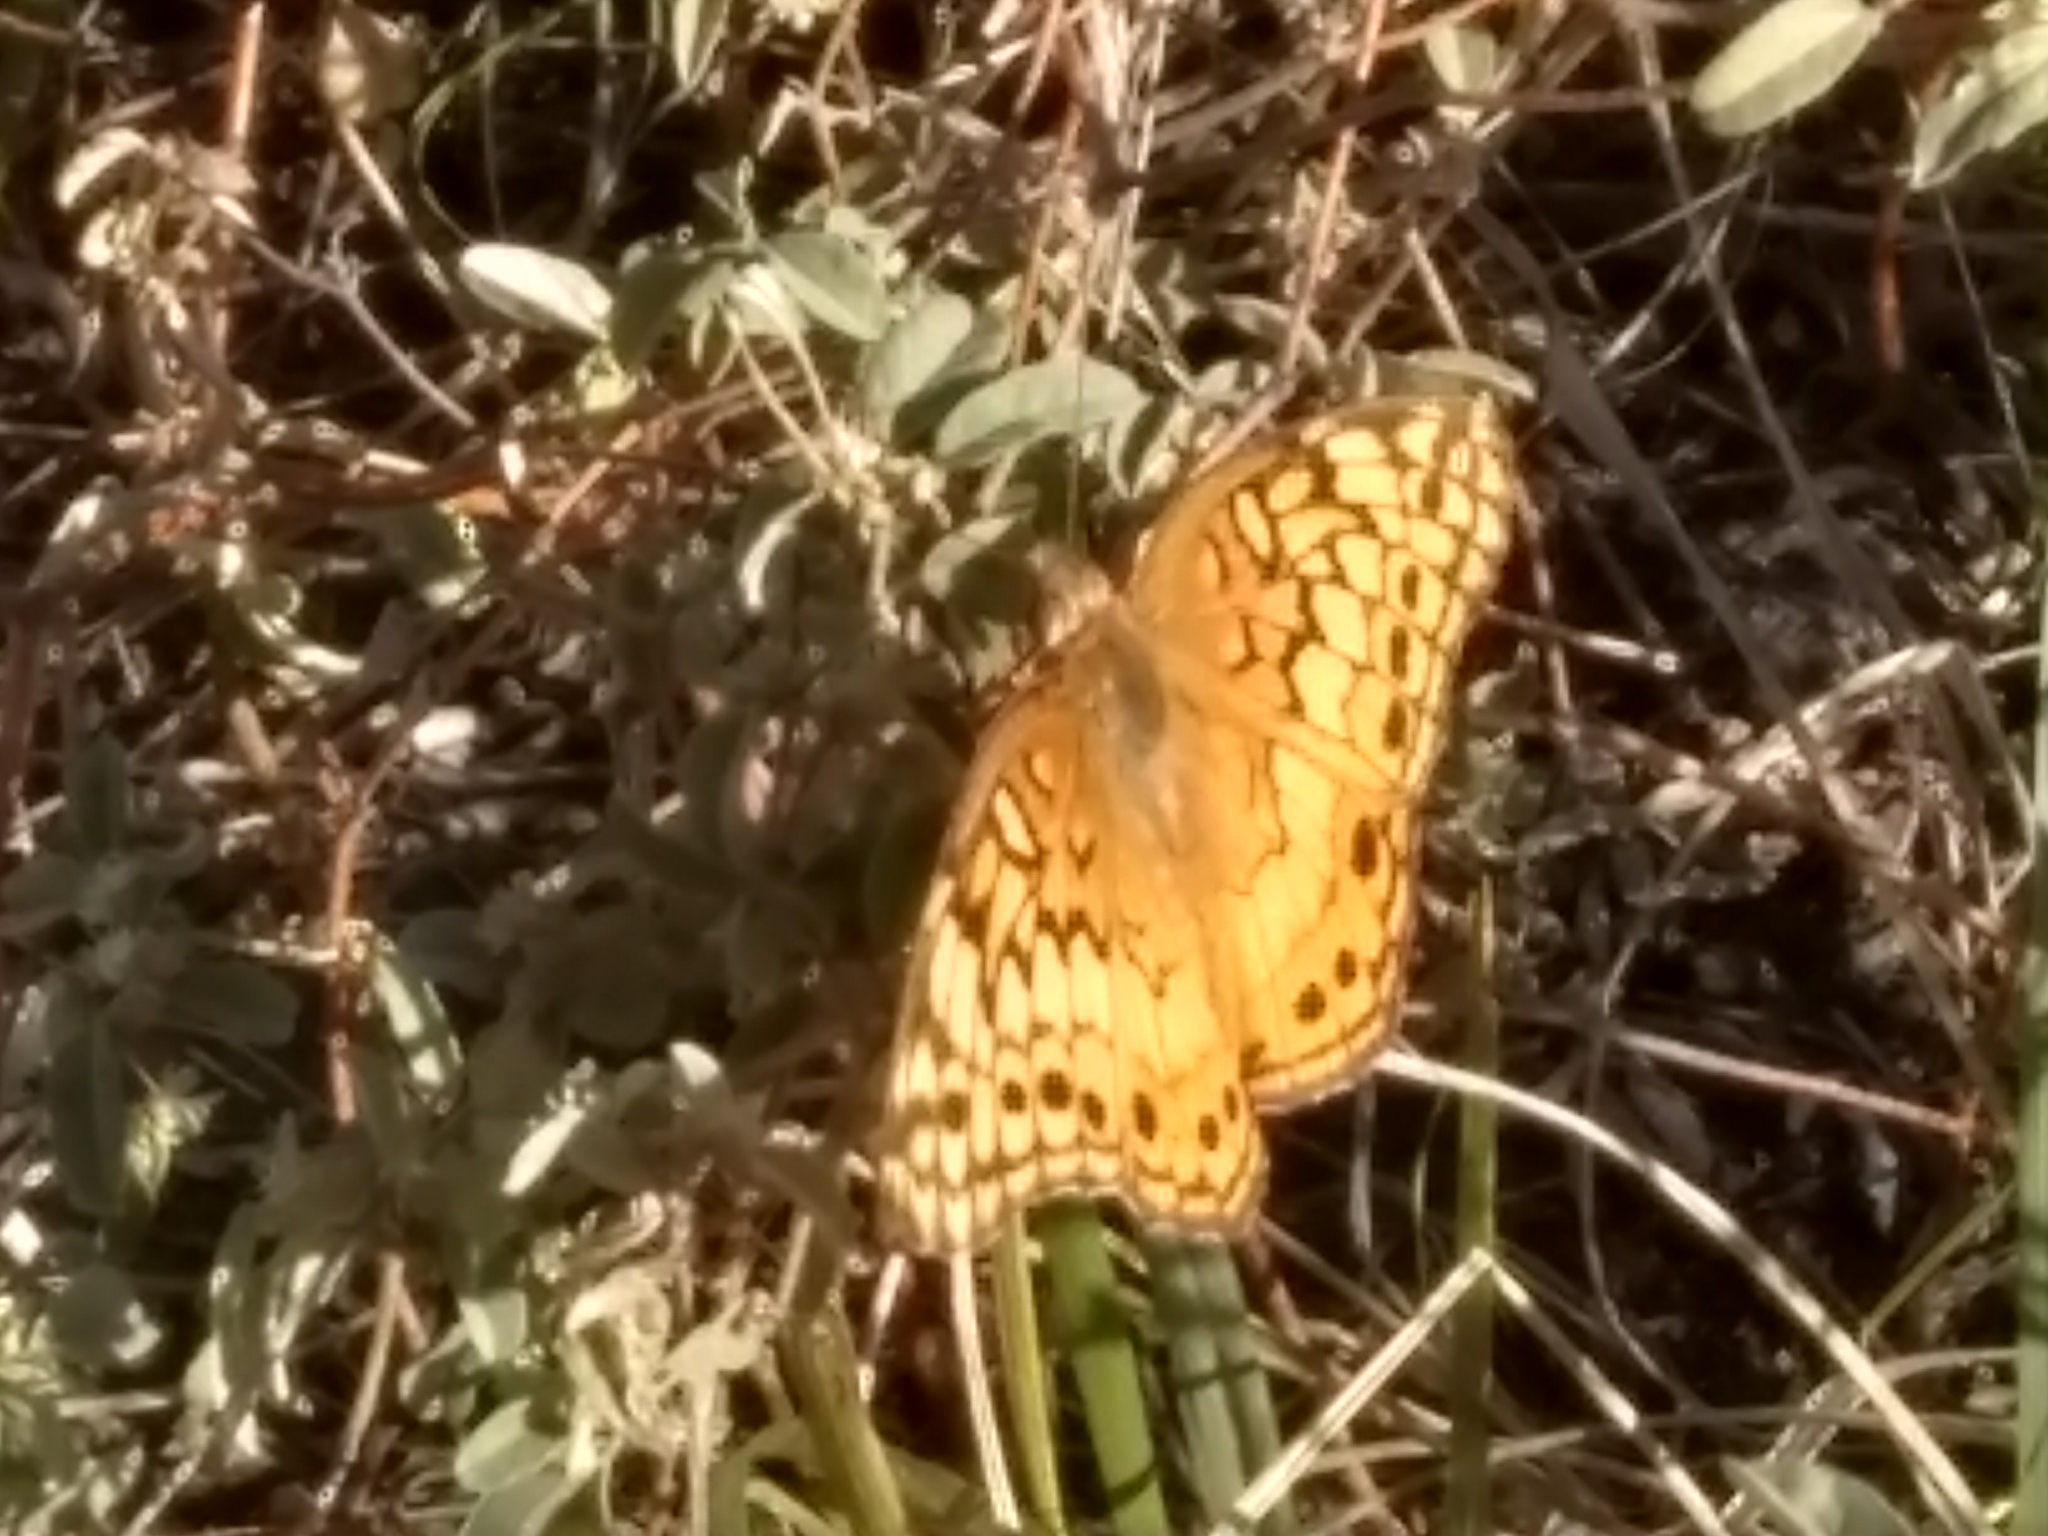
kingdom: Animalia
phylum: Arthropoda
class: Insecta
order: Lepidoptera
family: Nymphalidae
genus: Euptoieta
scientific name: Euptoieta claudia
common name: Variegated fritillary
